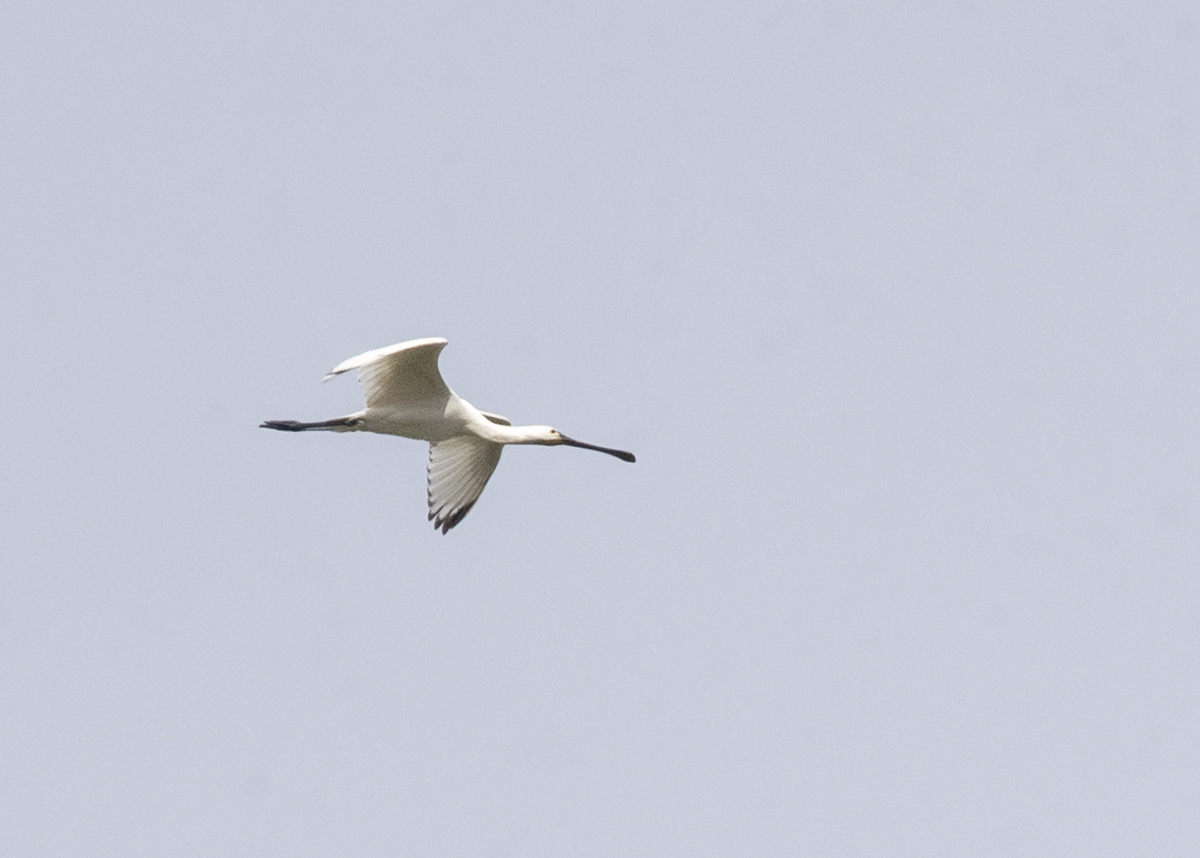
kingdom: Animalia
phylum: Chordata
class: Aves
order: Pelecaniformes
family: Threskiornithidae
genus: Platalea
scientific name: Platalea leucorodia
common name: Eurasian spoonbill
